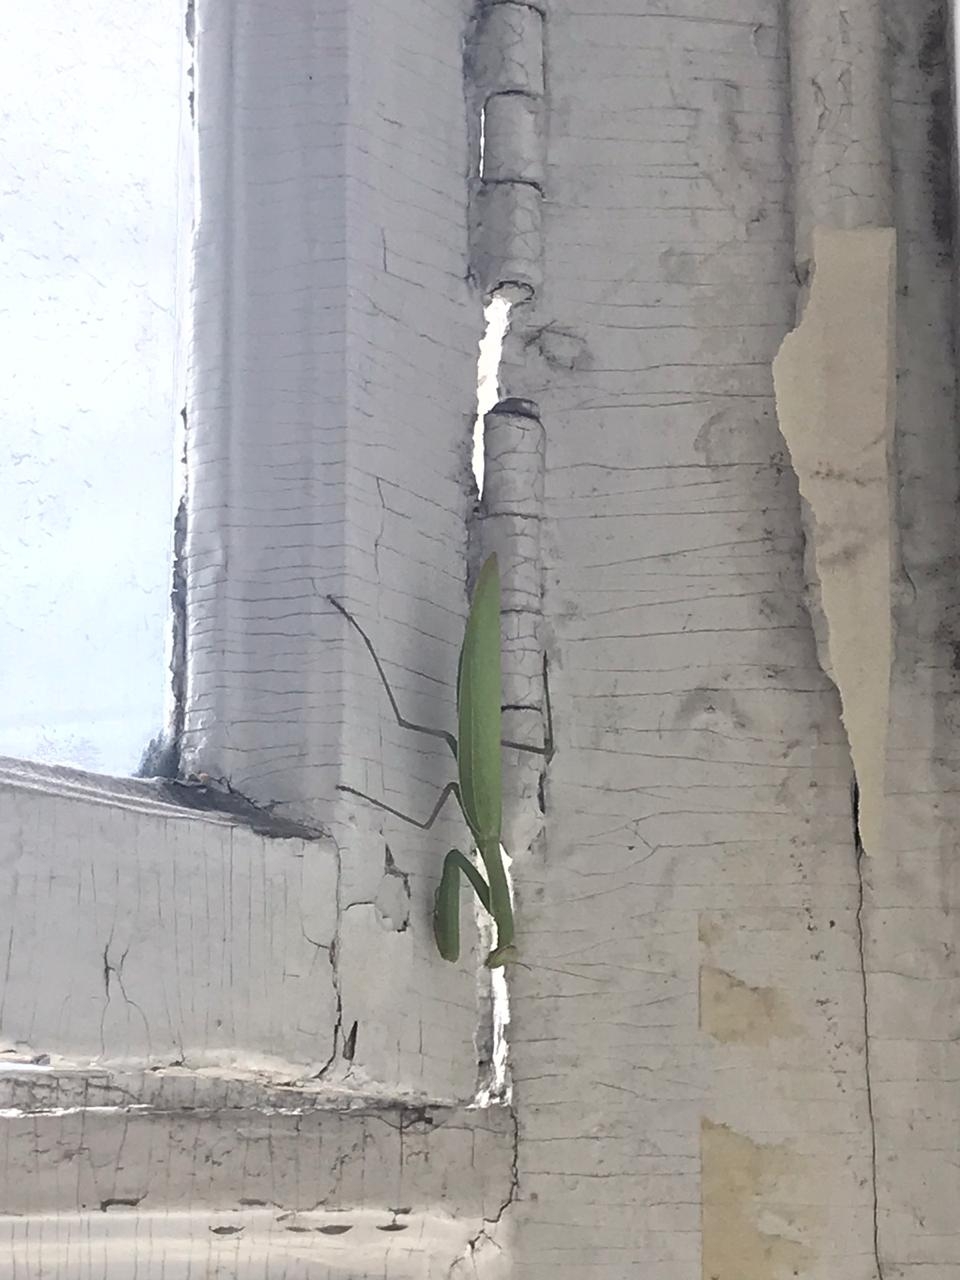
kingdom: Animalia
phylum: Arthropoda
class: Insecta
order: Mantodea
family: Mantidae
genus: Mantis
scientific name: Mantis religiosa
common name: Praying mantis
